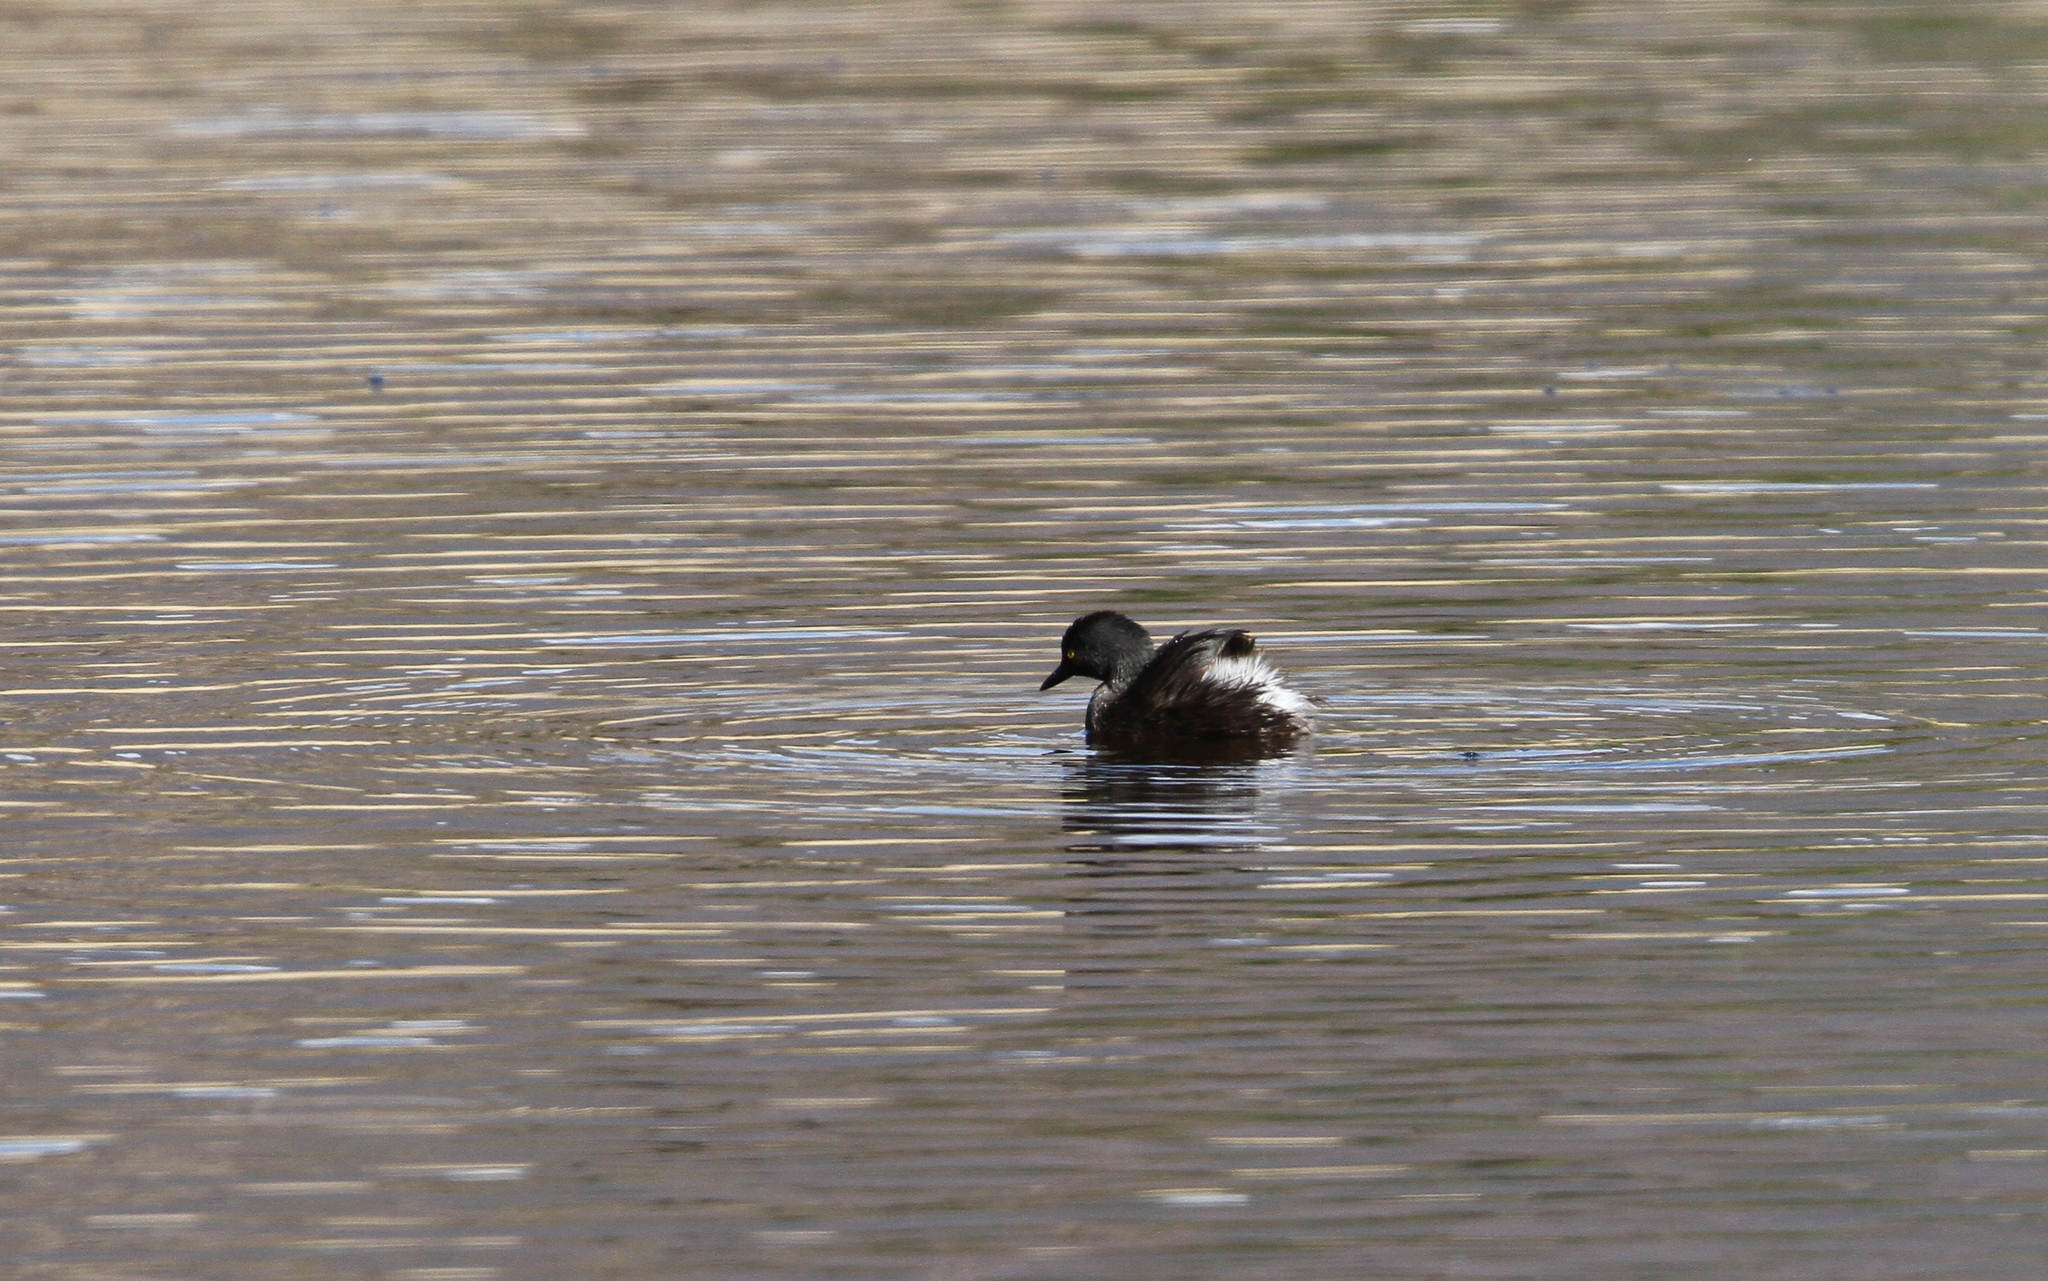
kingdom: Animalia
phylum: Chordata
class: Aves
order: Podicipediformes
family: Podicipedidae
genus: Tachybaptus
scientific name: Tachybaptus dominicus
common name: Least grebe
